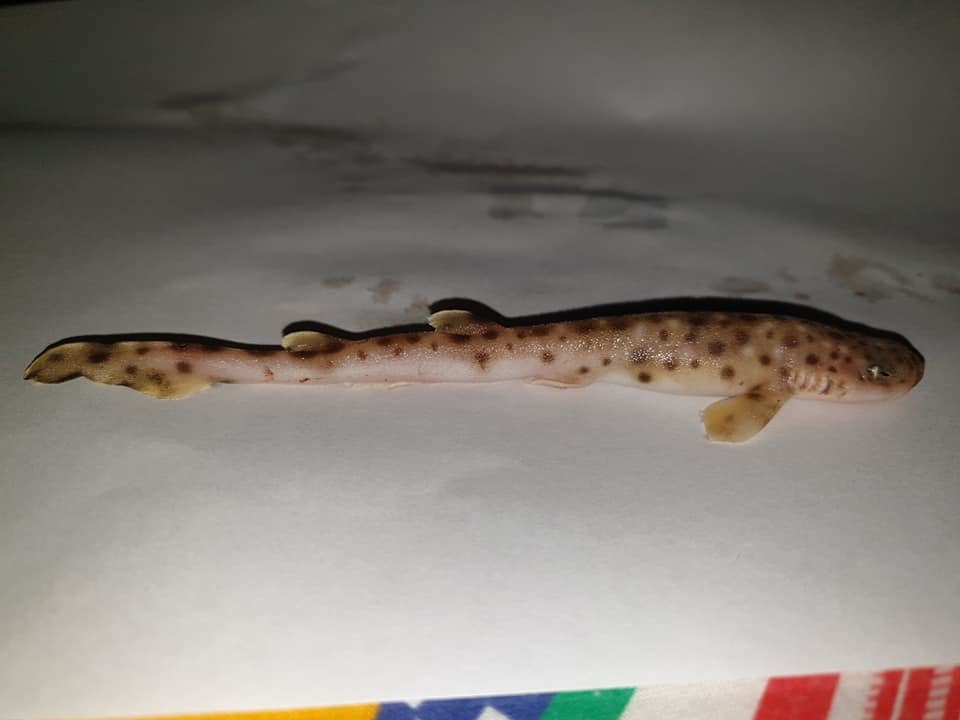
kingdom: Animalia
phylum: Chordata
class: Elasmobranchii
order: Carcharhiniformes
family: Scyliorhinidae
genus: Scyliorhinus
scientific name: Scyliorhinus canicula
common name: Lesser spotted dogfish
